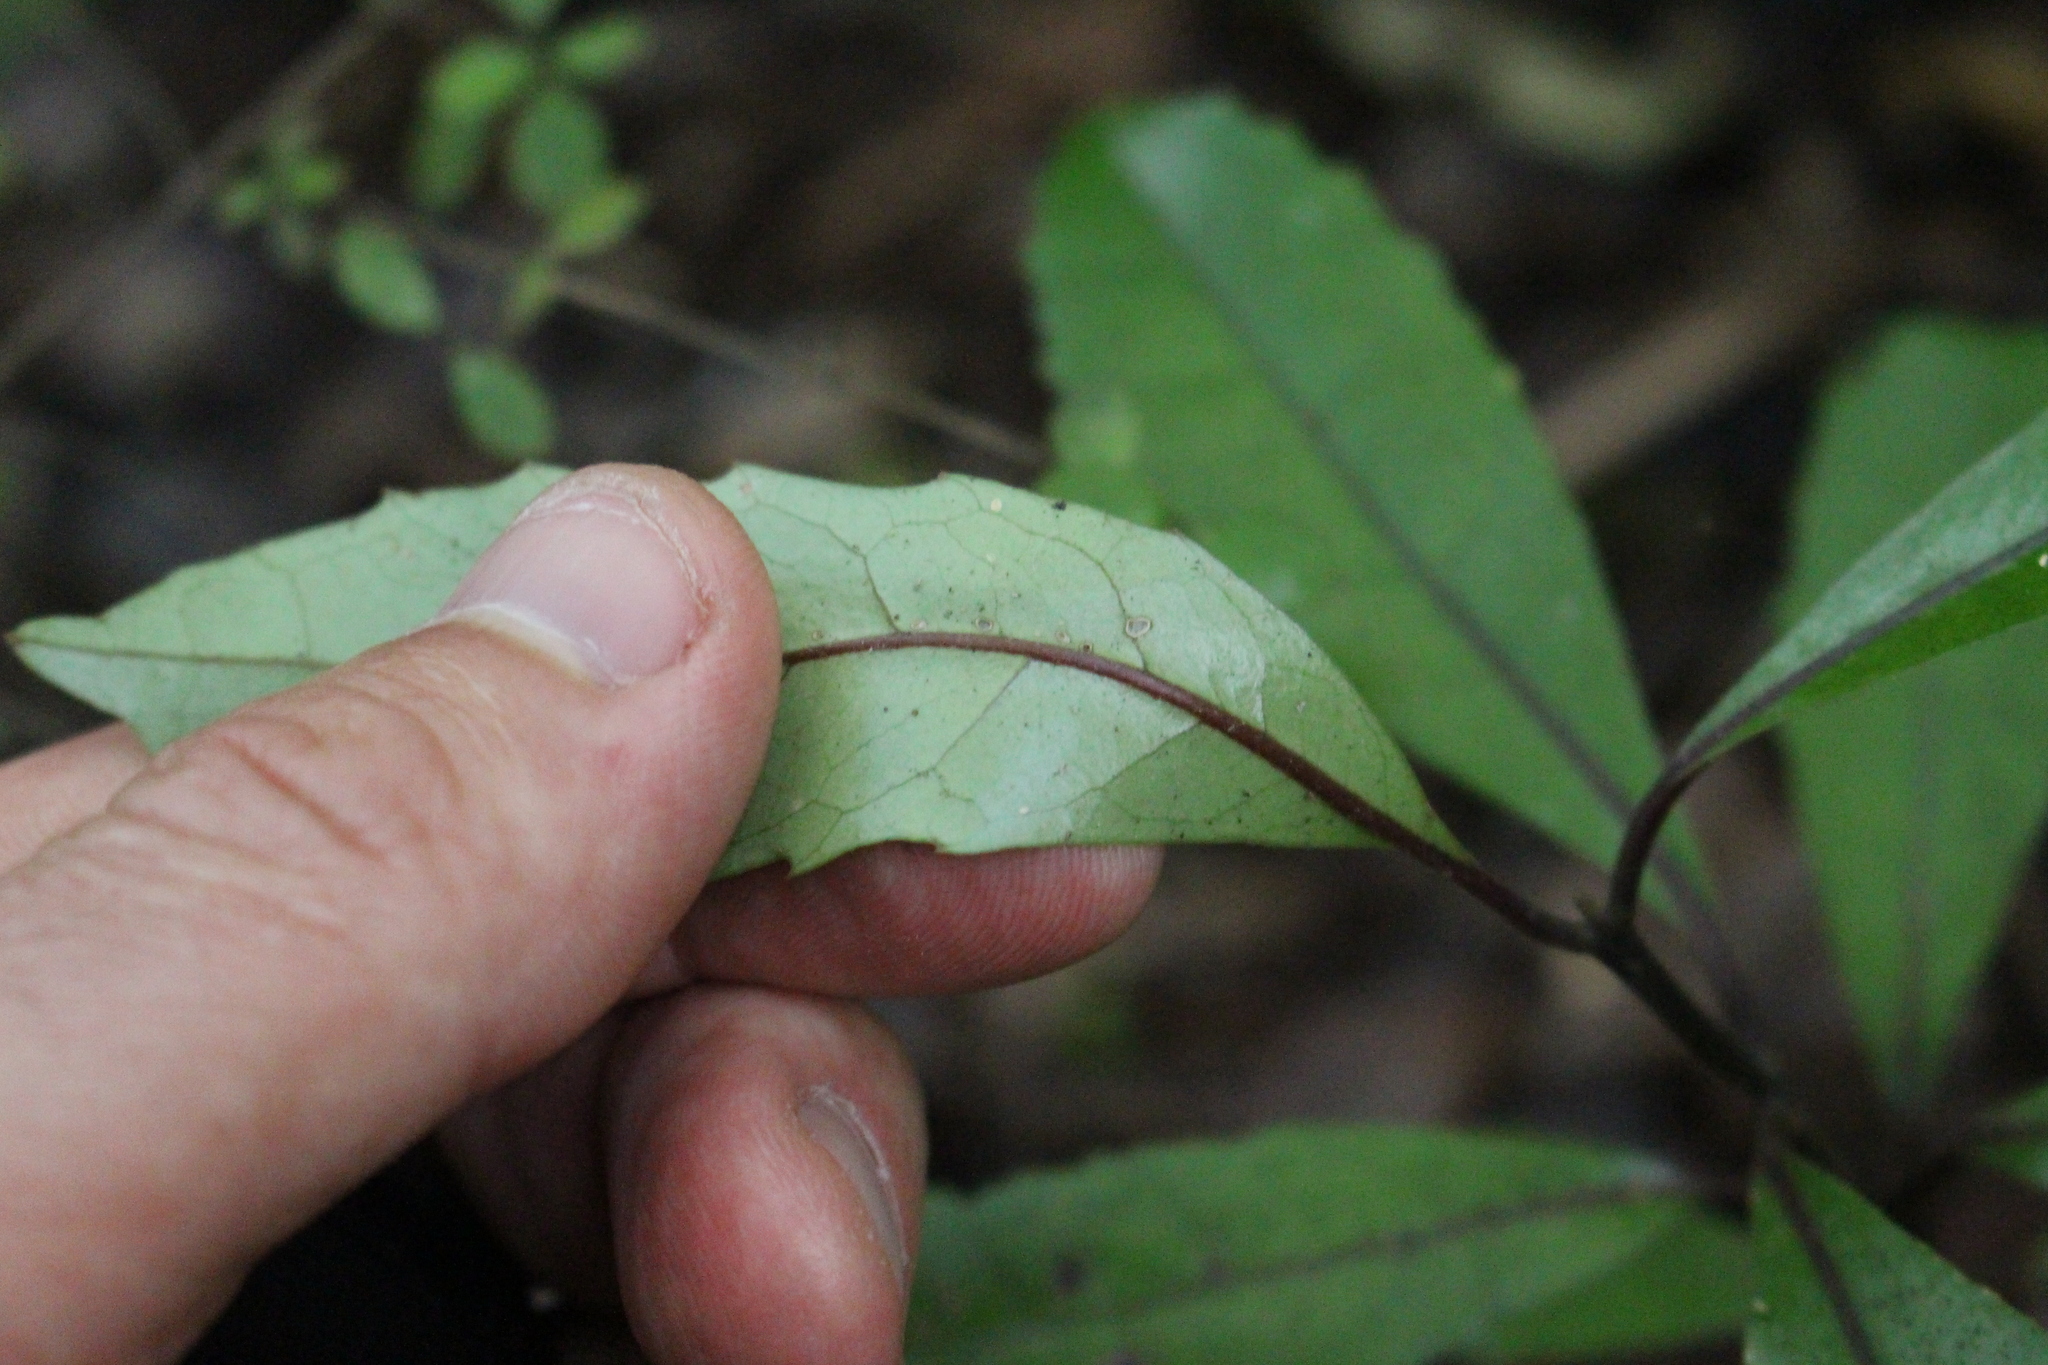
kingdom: Plantae
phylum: Tracheophyta
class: Magnoliopsida
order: Laurales
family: Monimiaceae
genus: Hedycarya
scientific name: Hedycarya arborea
